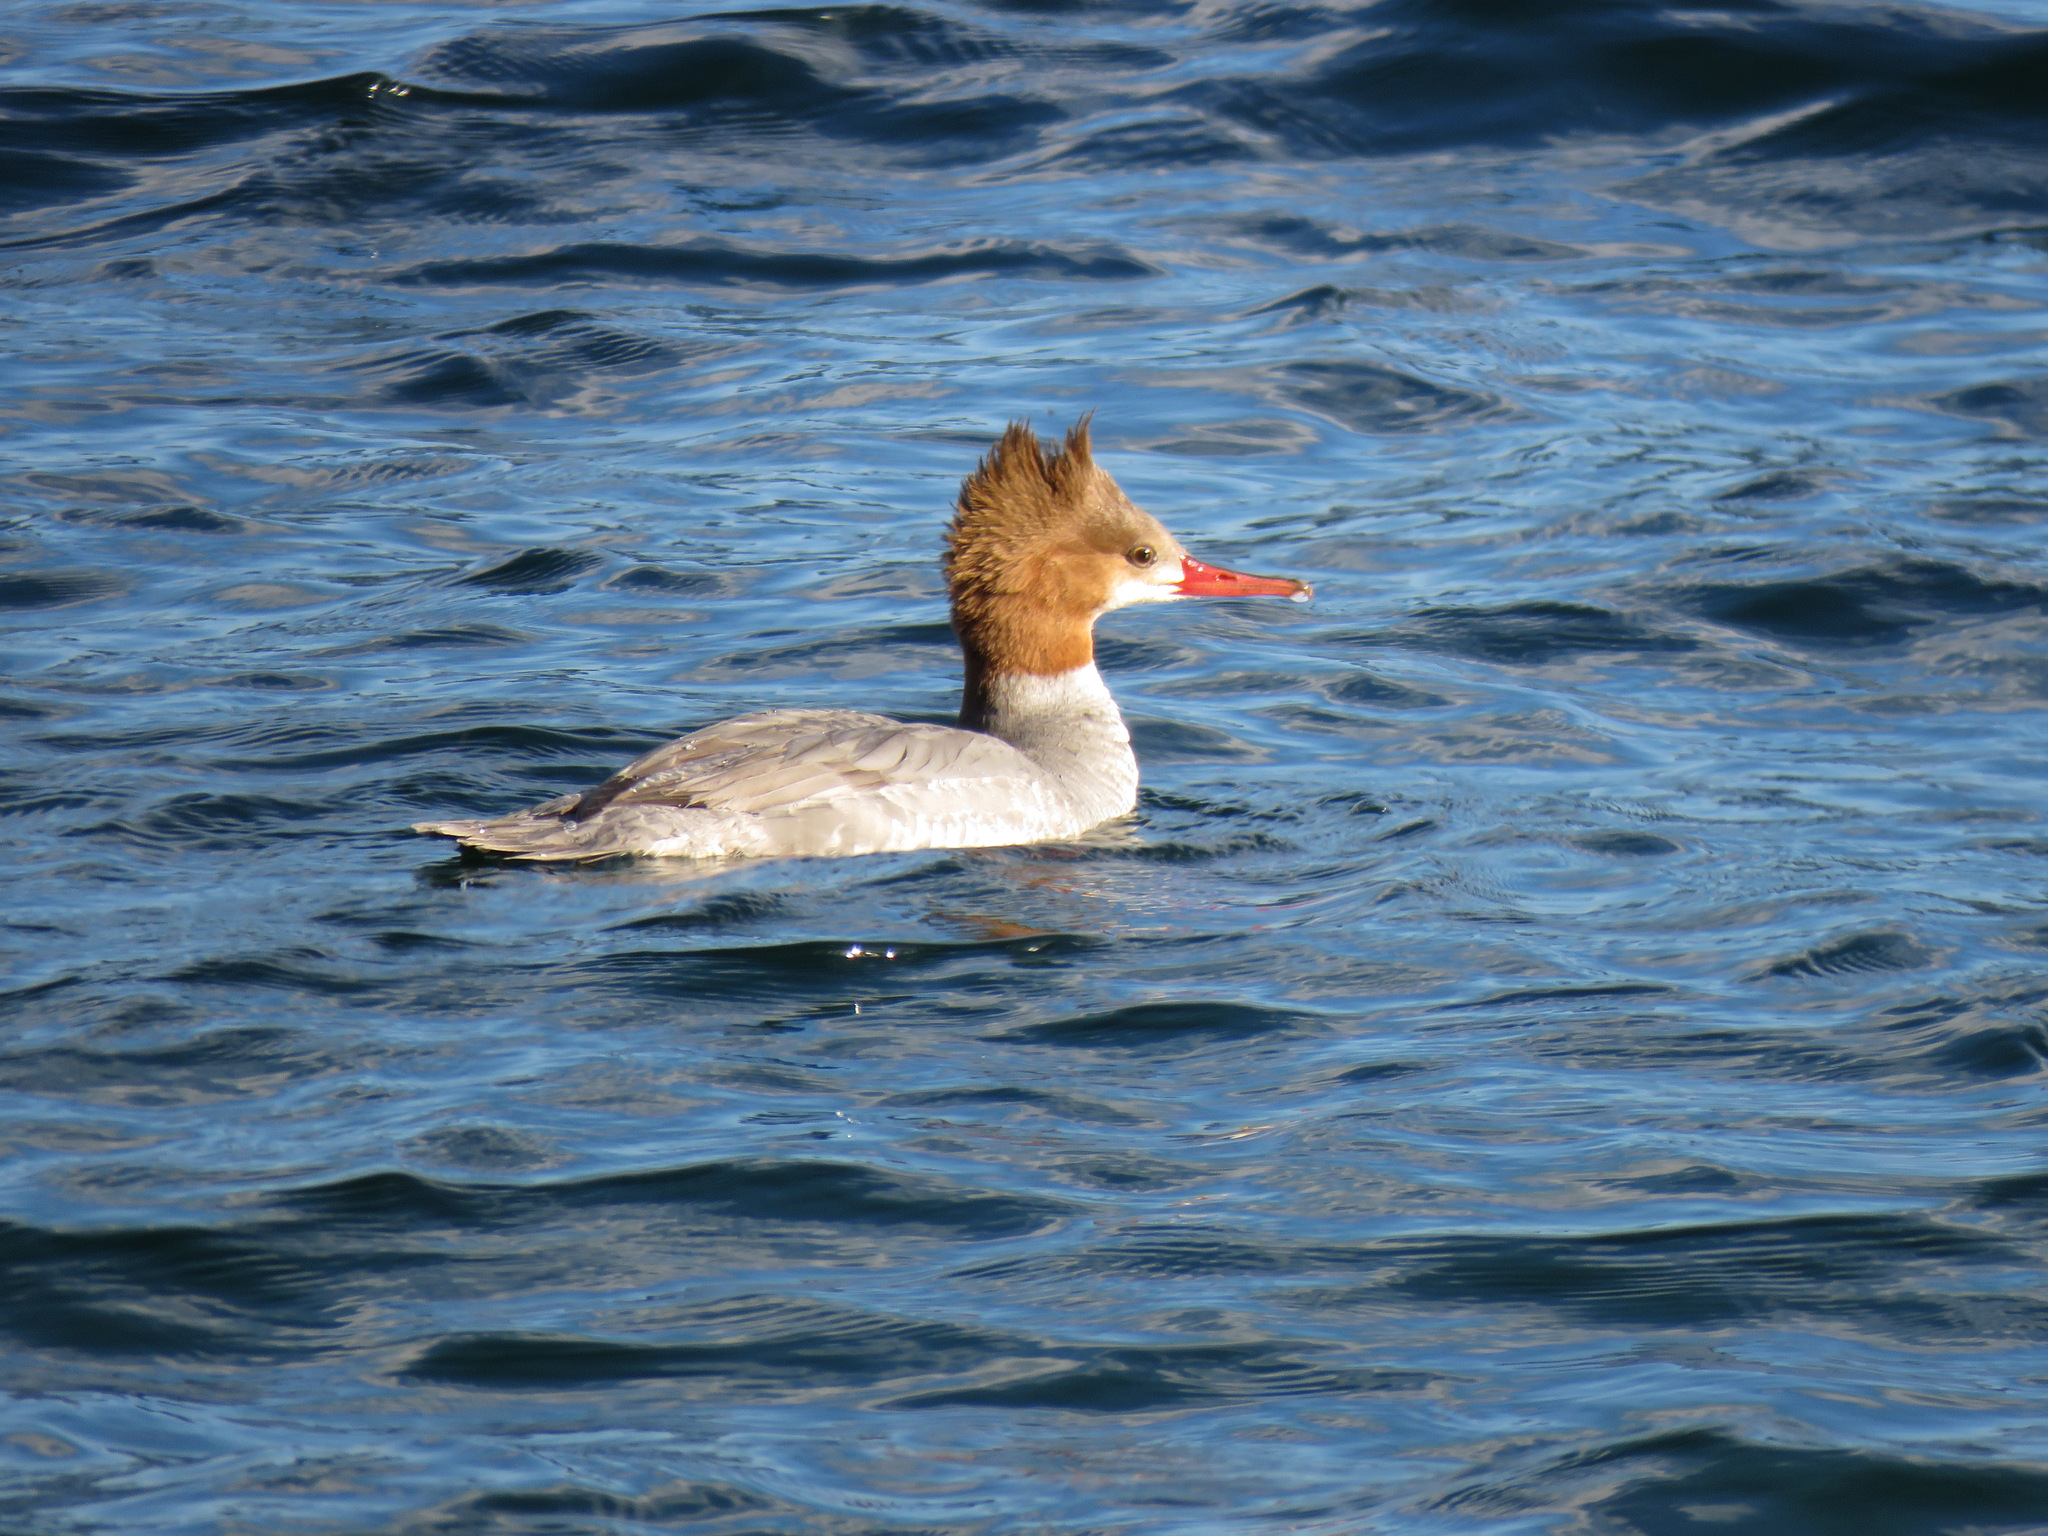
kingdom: Animalia
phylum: Chordata
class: Aves
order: Anseriformes
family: Anatidae
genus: Mergus
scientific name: Mergus merganser
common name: Common merganser
